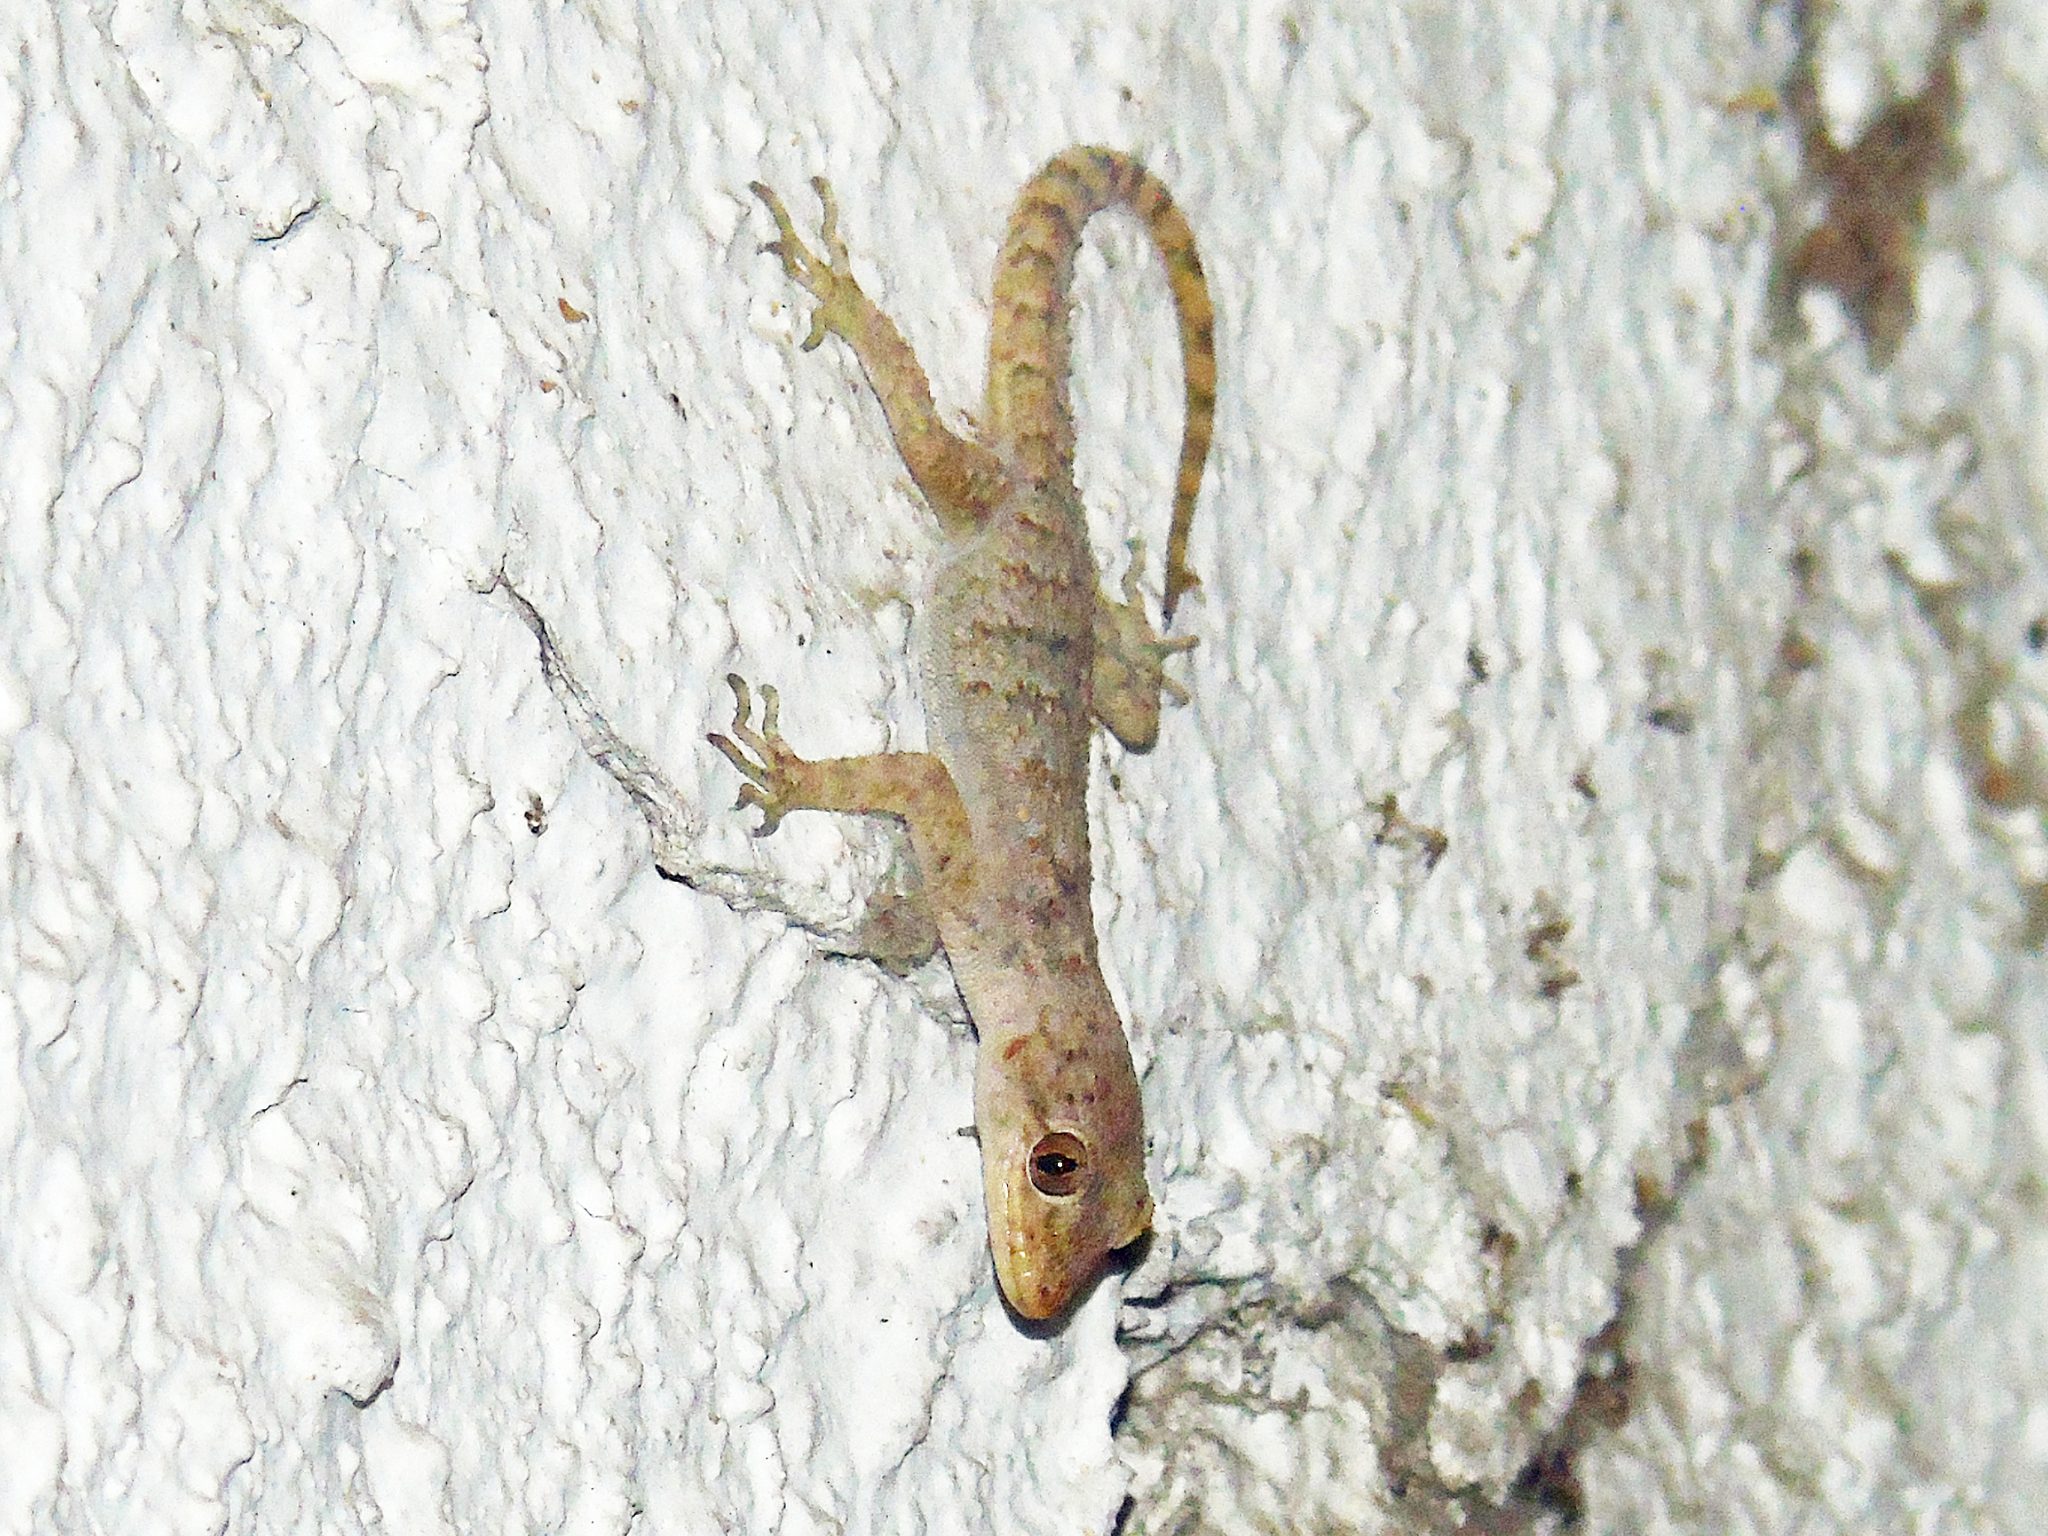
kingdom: Animalia
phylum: Chordata
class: Squamata
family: Gekkonidae
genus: Mediodactylus
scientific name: Mediodactylus kotschyi
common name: Kotschy's gecko
